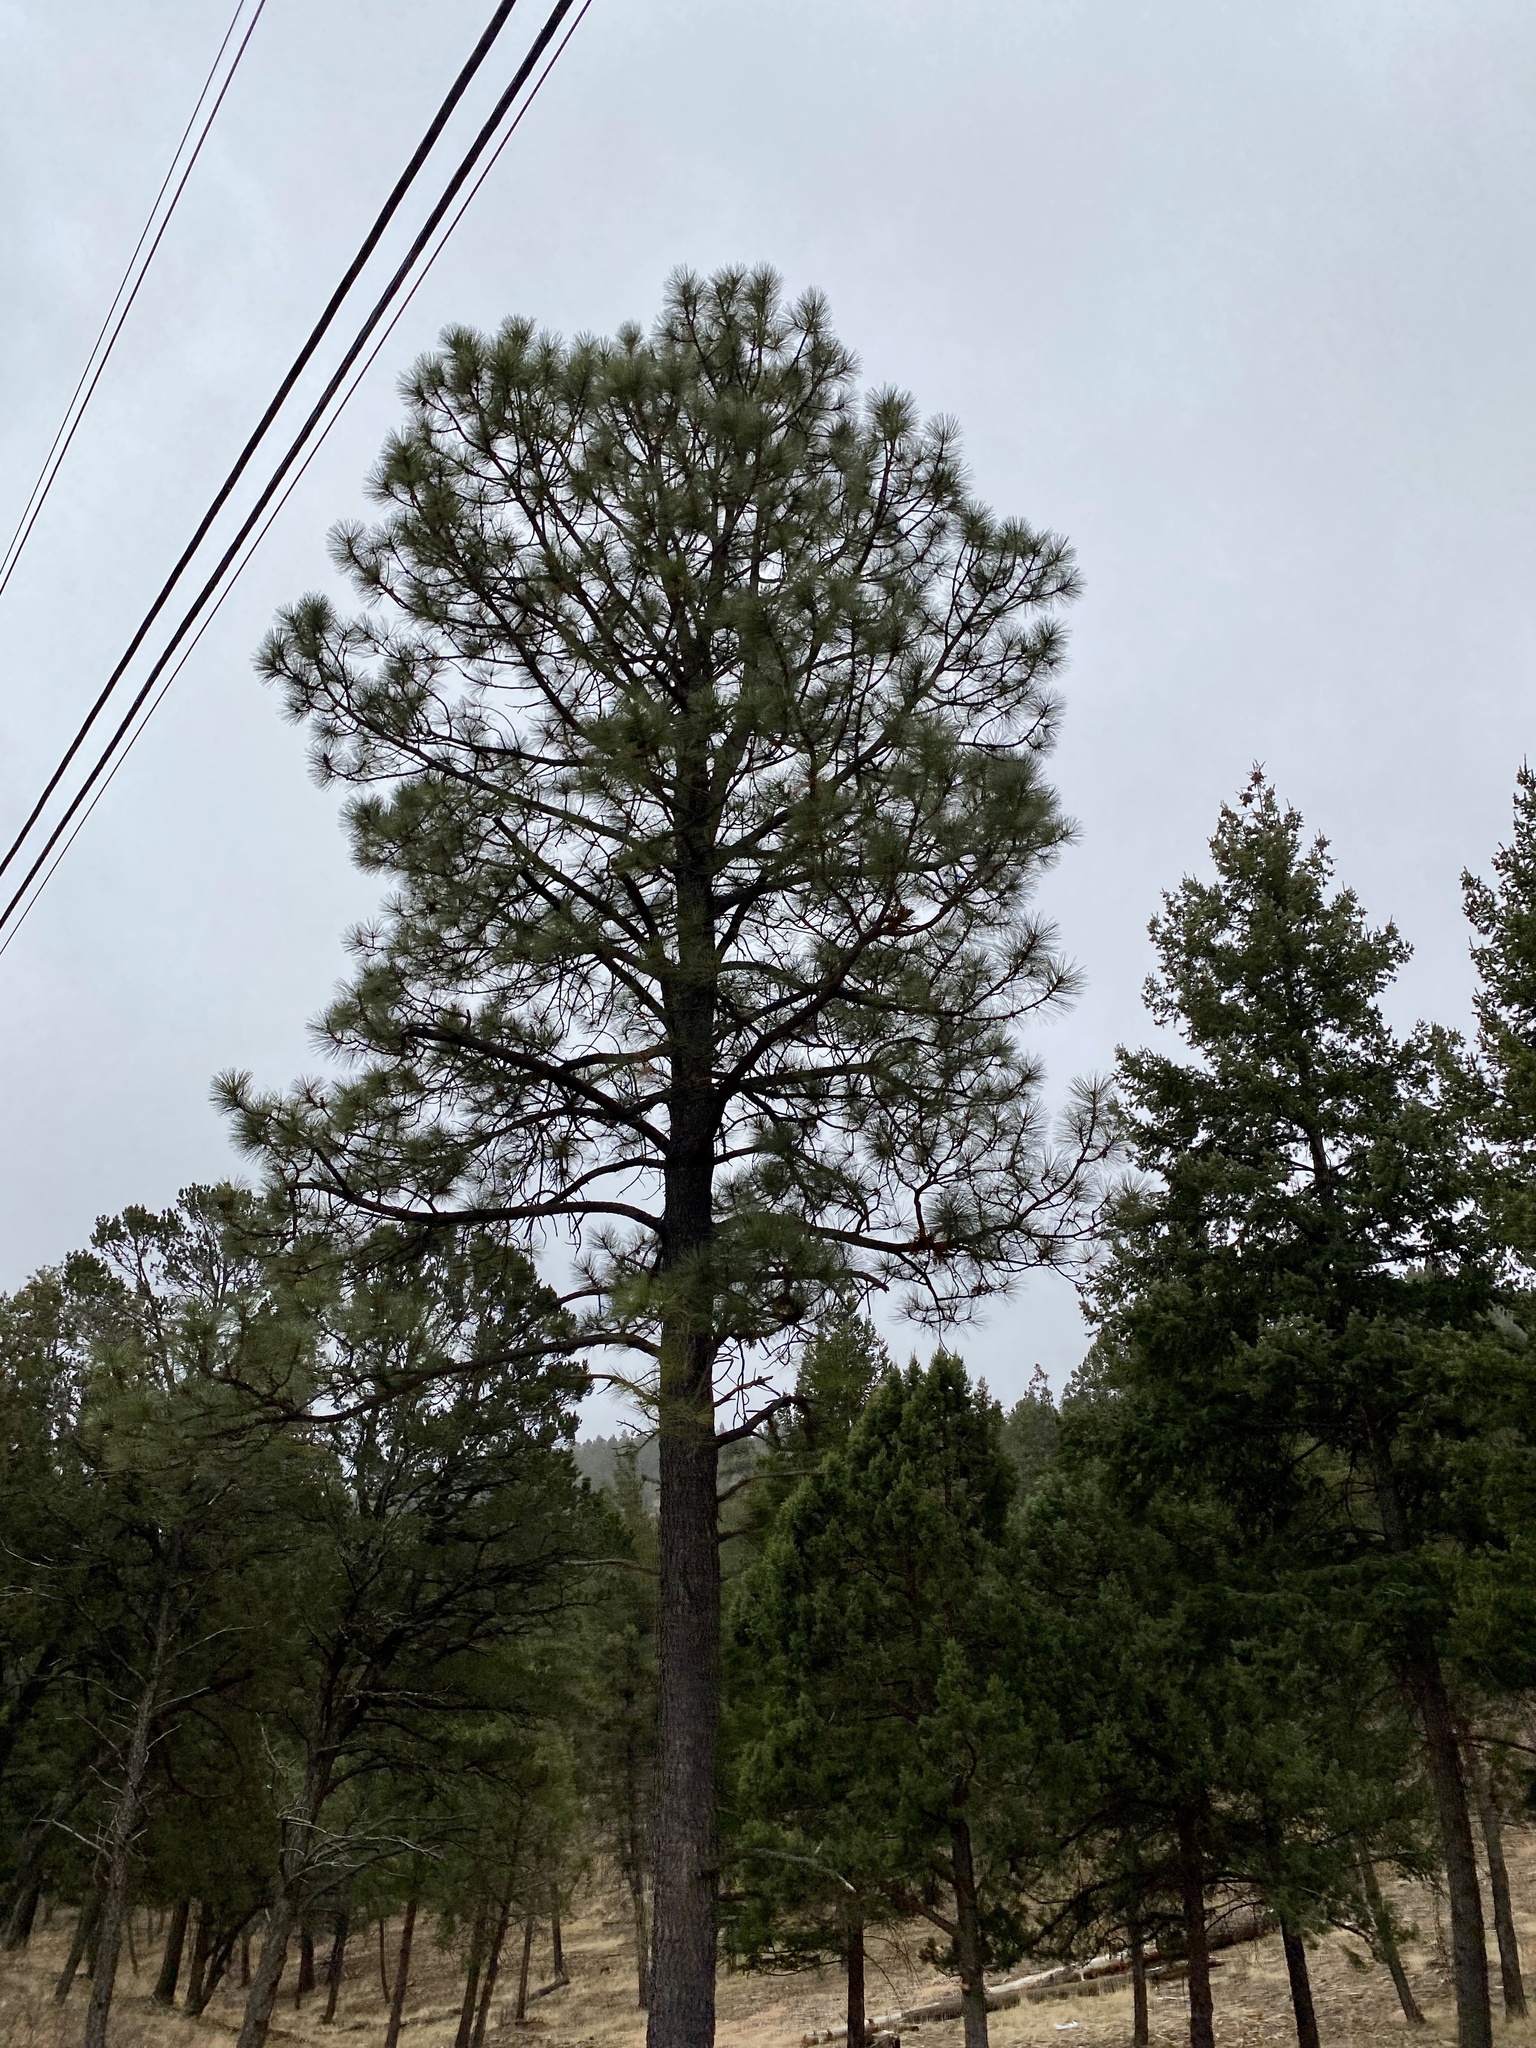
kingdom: Plantae
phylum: Tracheophyta
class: Pinopsida
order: Pinales
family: Pinaceae
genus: Pinus
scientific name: Pinus ponderosa
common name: Western yellow-pine
